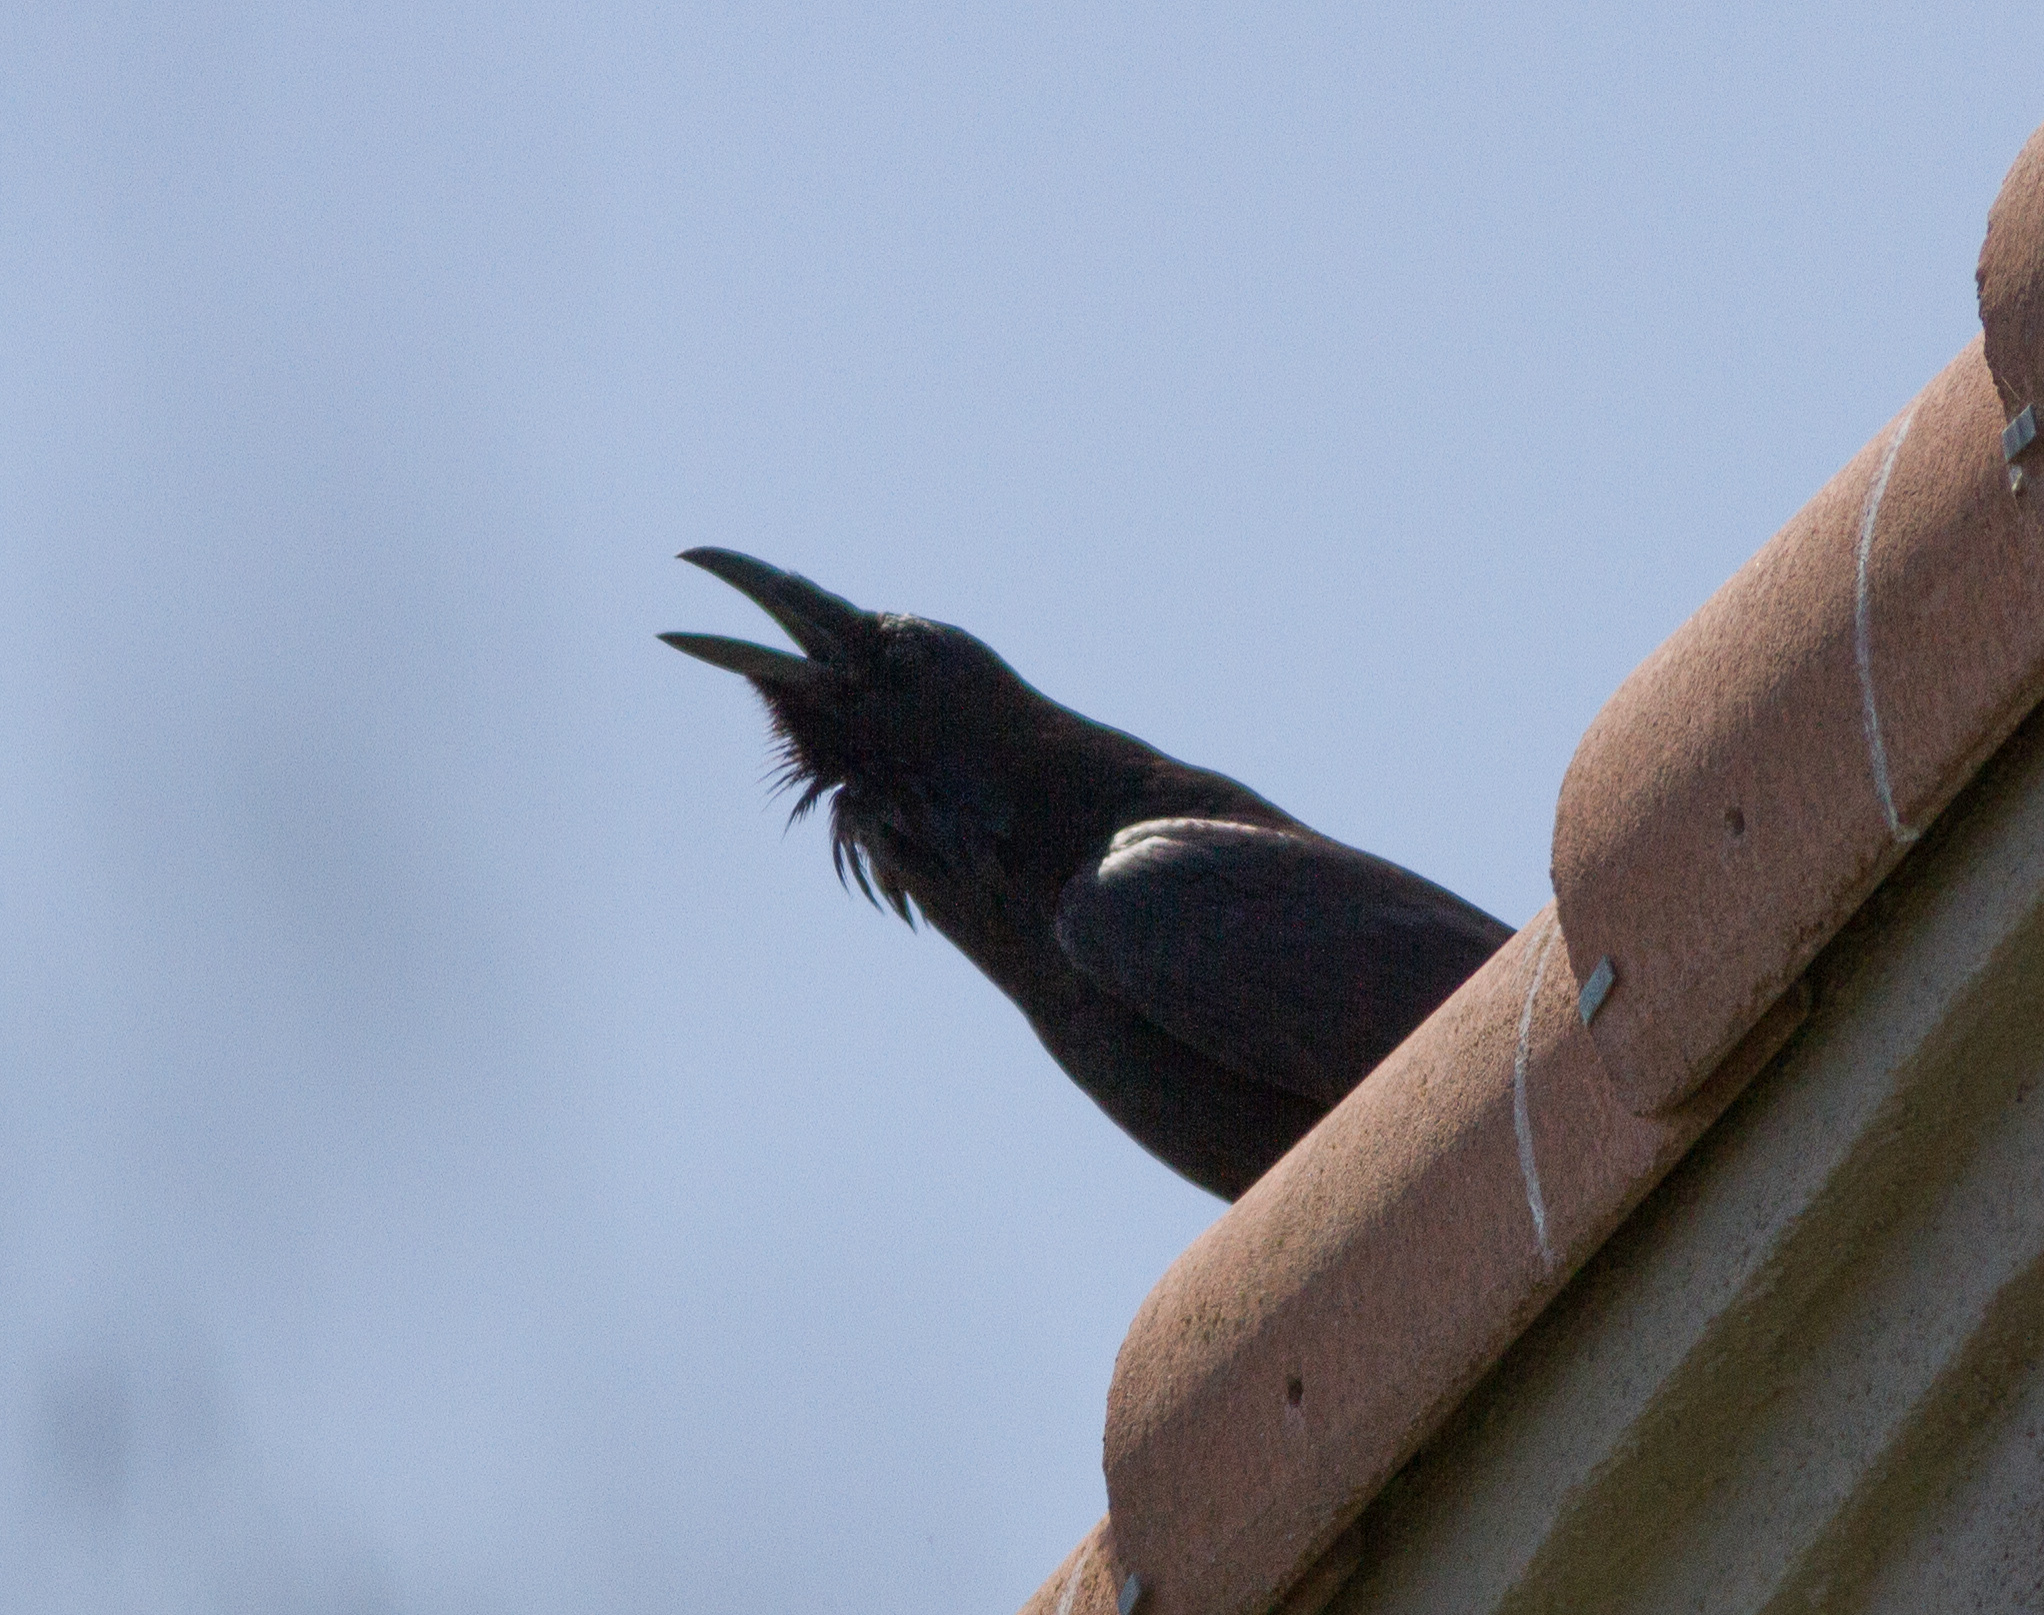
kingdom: Animalia
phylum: Chordata
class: Aves
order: Passeriformes
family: Corvidae
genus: Corvus
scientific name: Corvus corax
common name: Common raven
